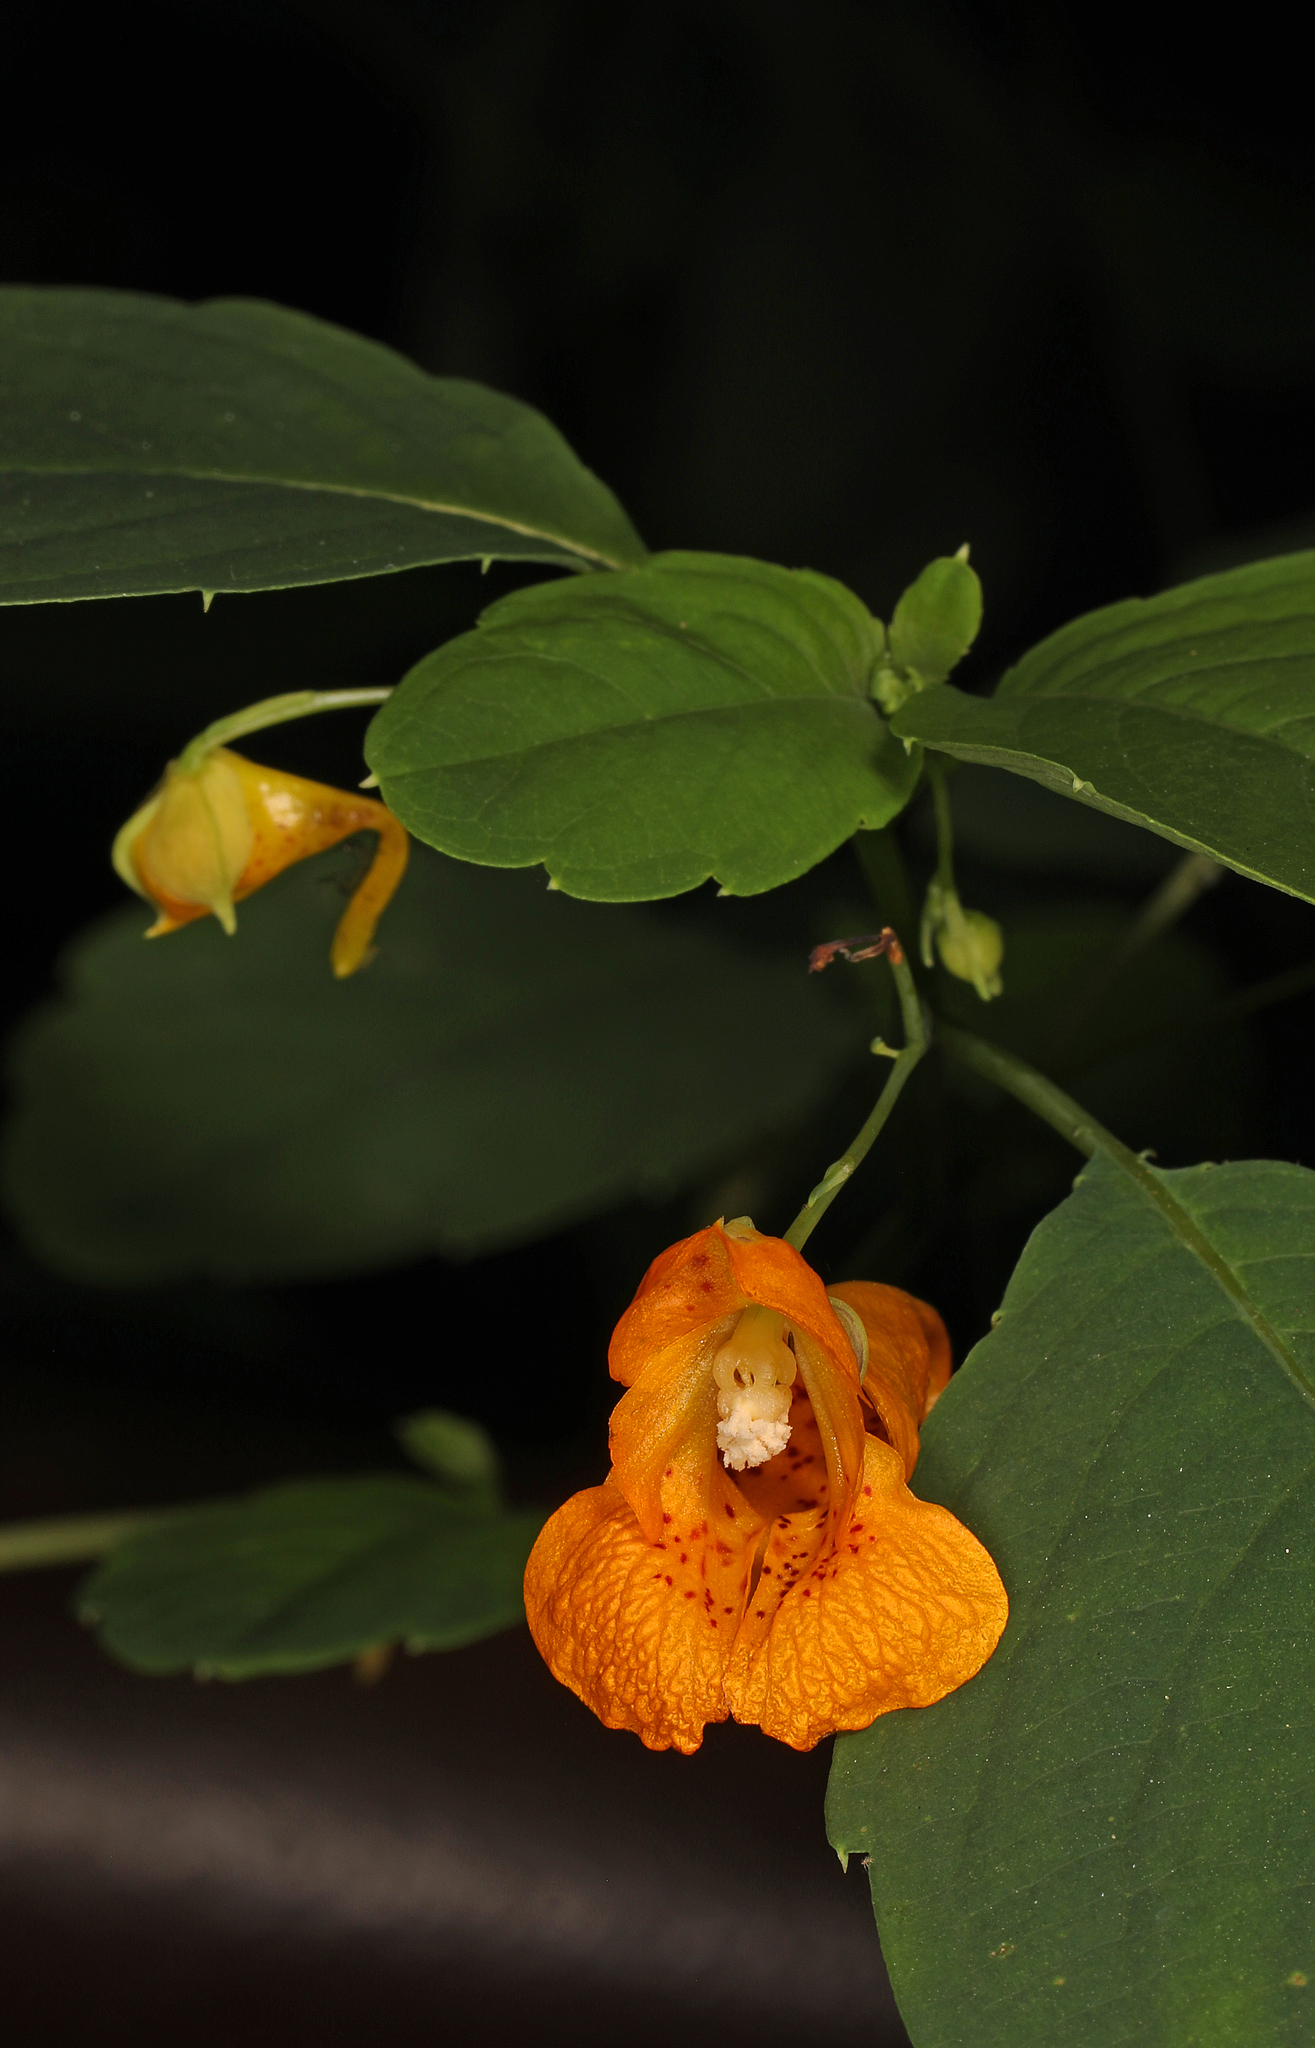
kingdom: Plantae
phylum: Tracheophyta
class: Magnoliopsida
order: Ericales
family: Balsaminaceae
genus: Impatiens
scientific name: Impatiens capensis
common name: Orange balsam
